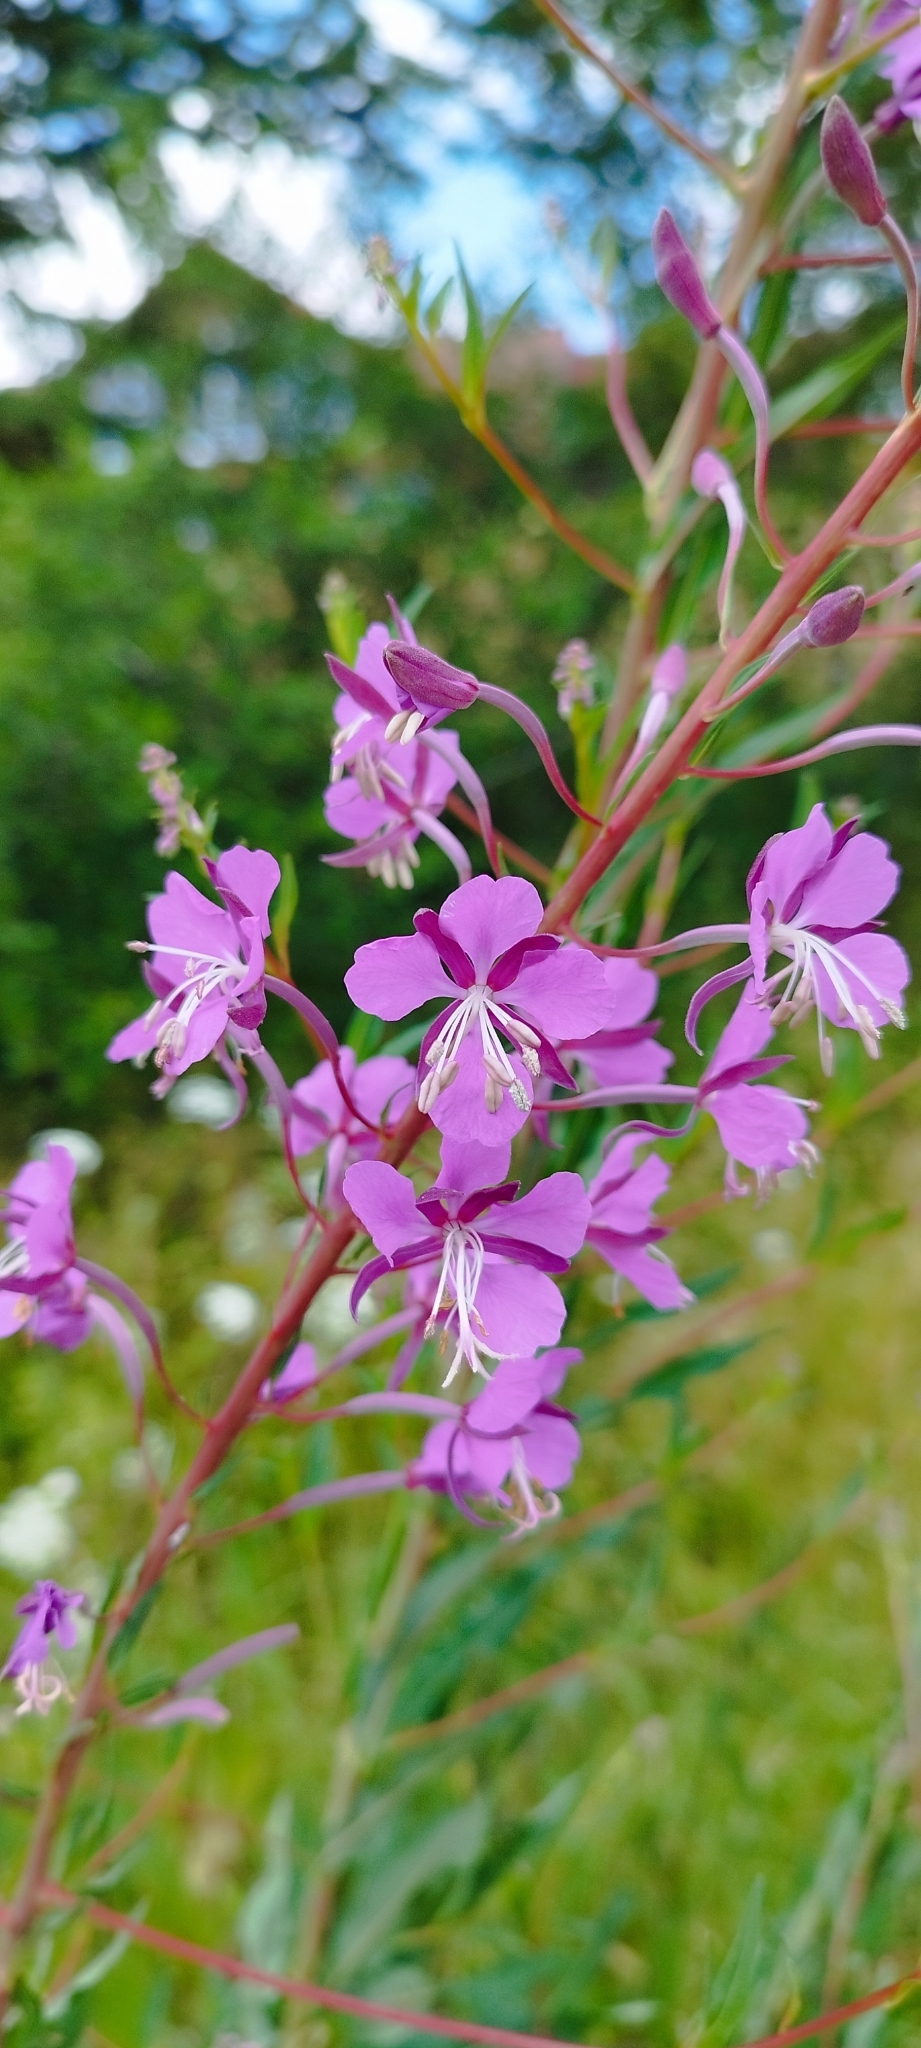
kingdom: Plantae
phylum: Tracheophyta
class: Magnoliopsida
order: Myrtales
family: Onagraceae
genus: Chamaenerion
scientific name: Chamaenerion angustifolium
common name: Fireweed
